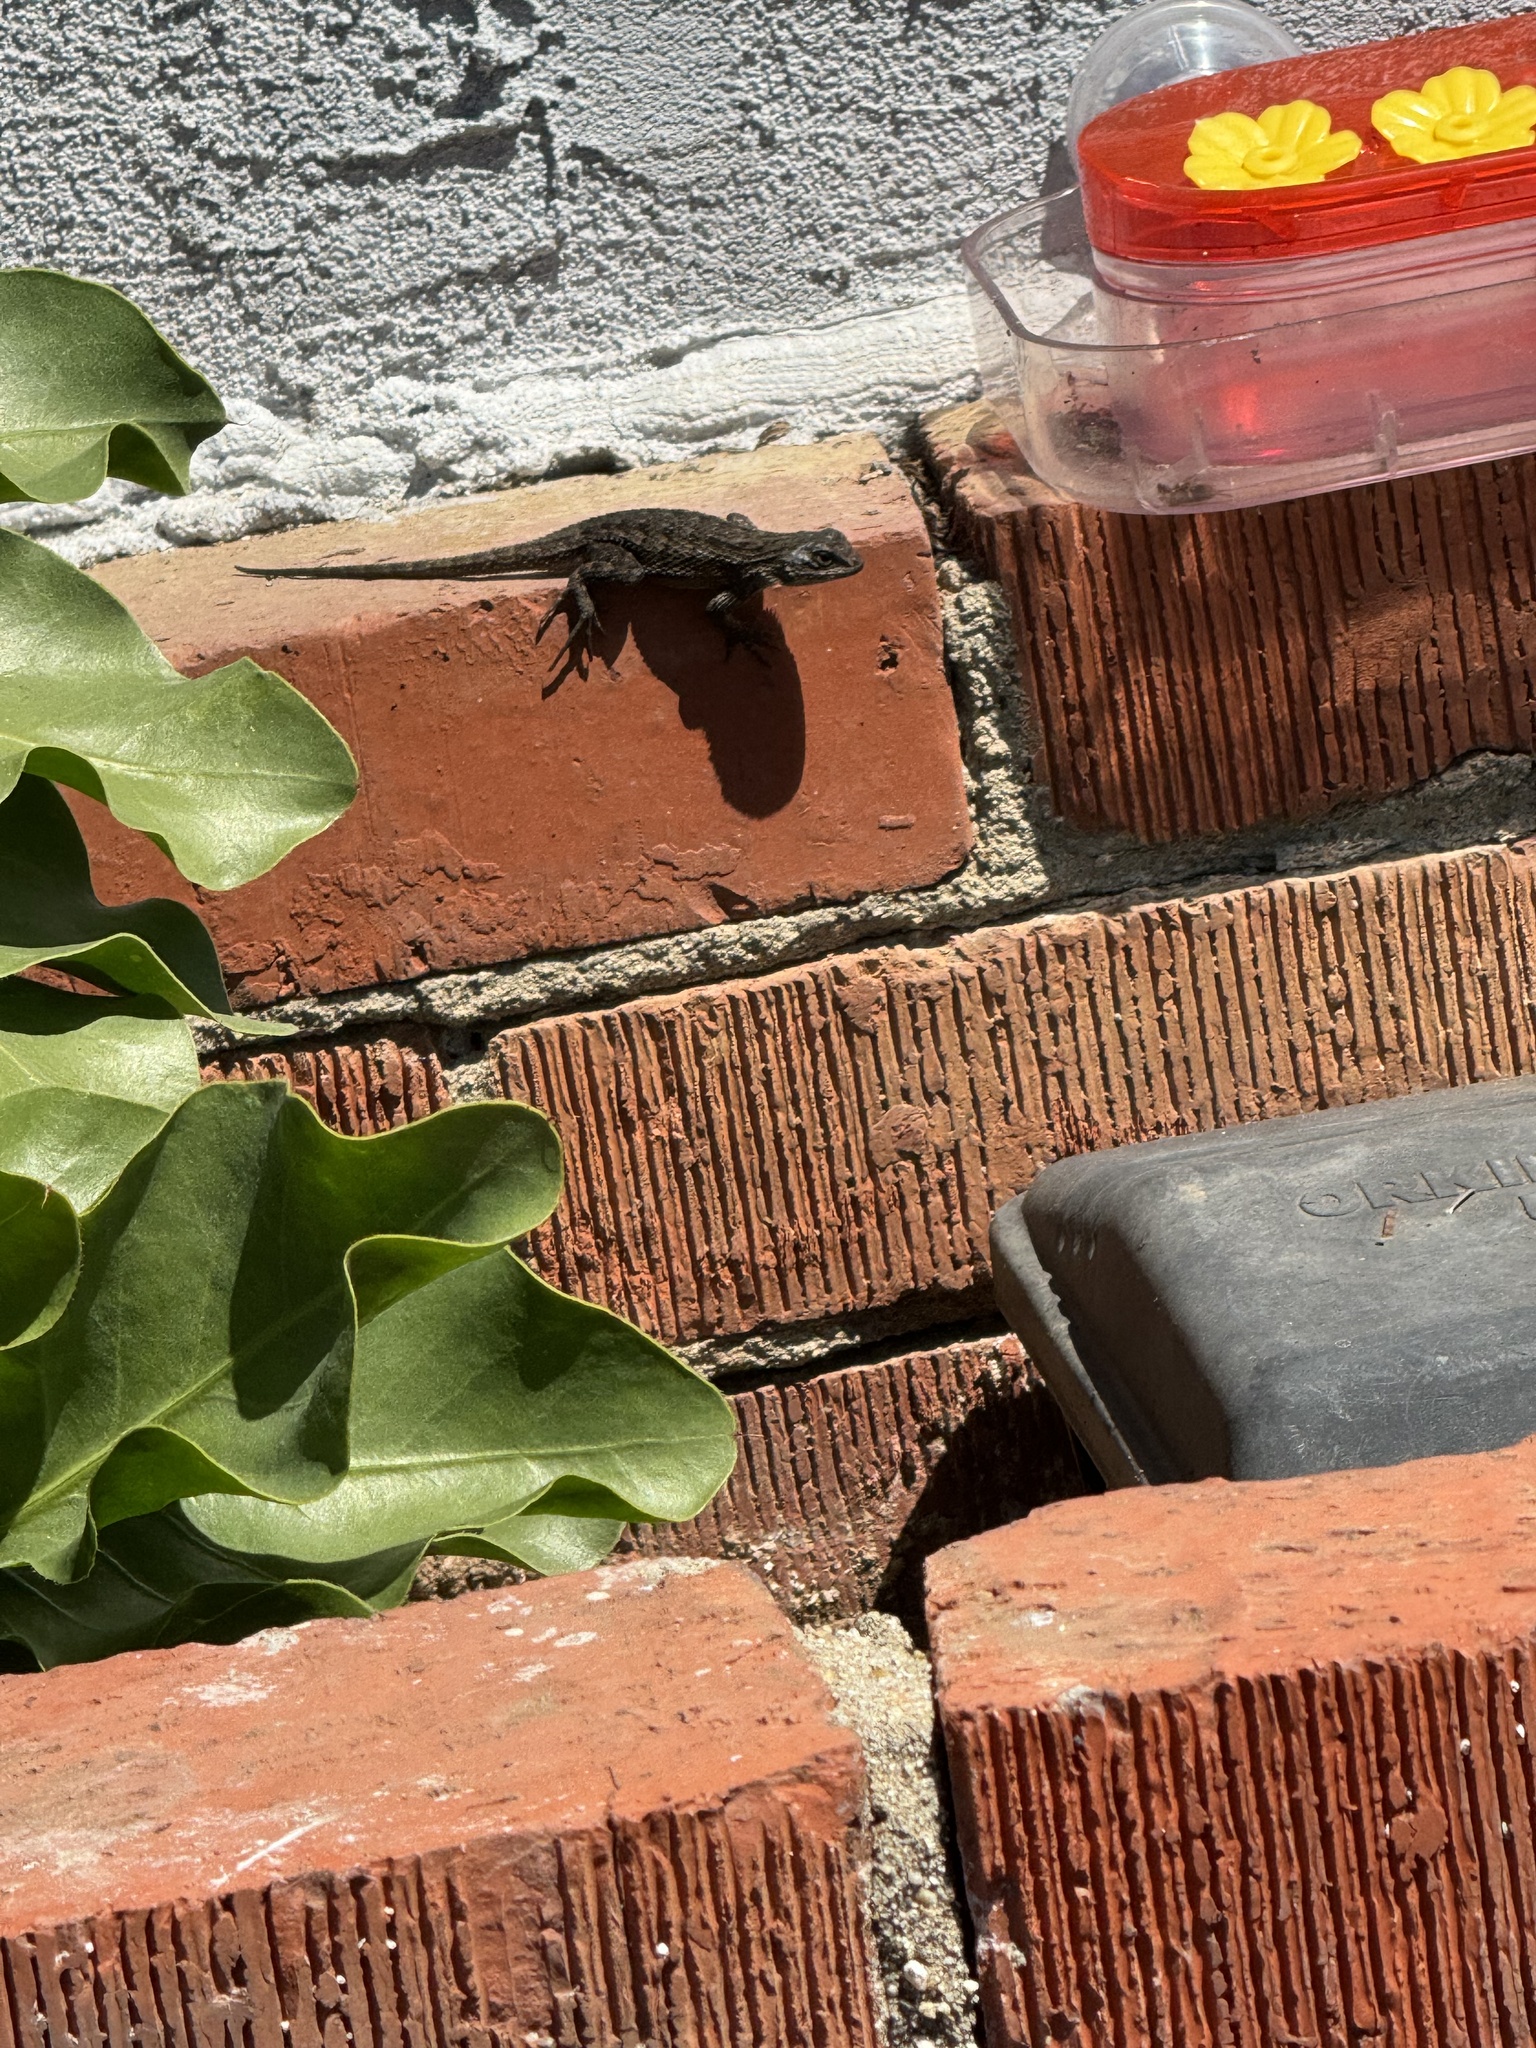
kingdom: Animalia
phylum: Chordata
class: Squamata
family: Phrynosomatidae
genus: Sceloporus
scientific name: Sceloporus occidentalis
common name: Western fence lizard
